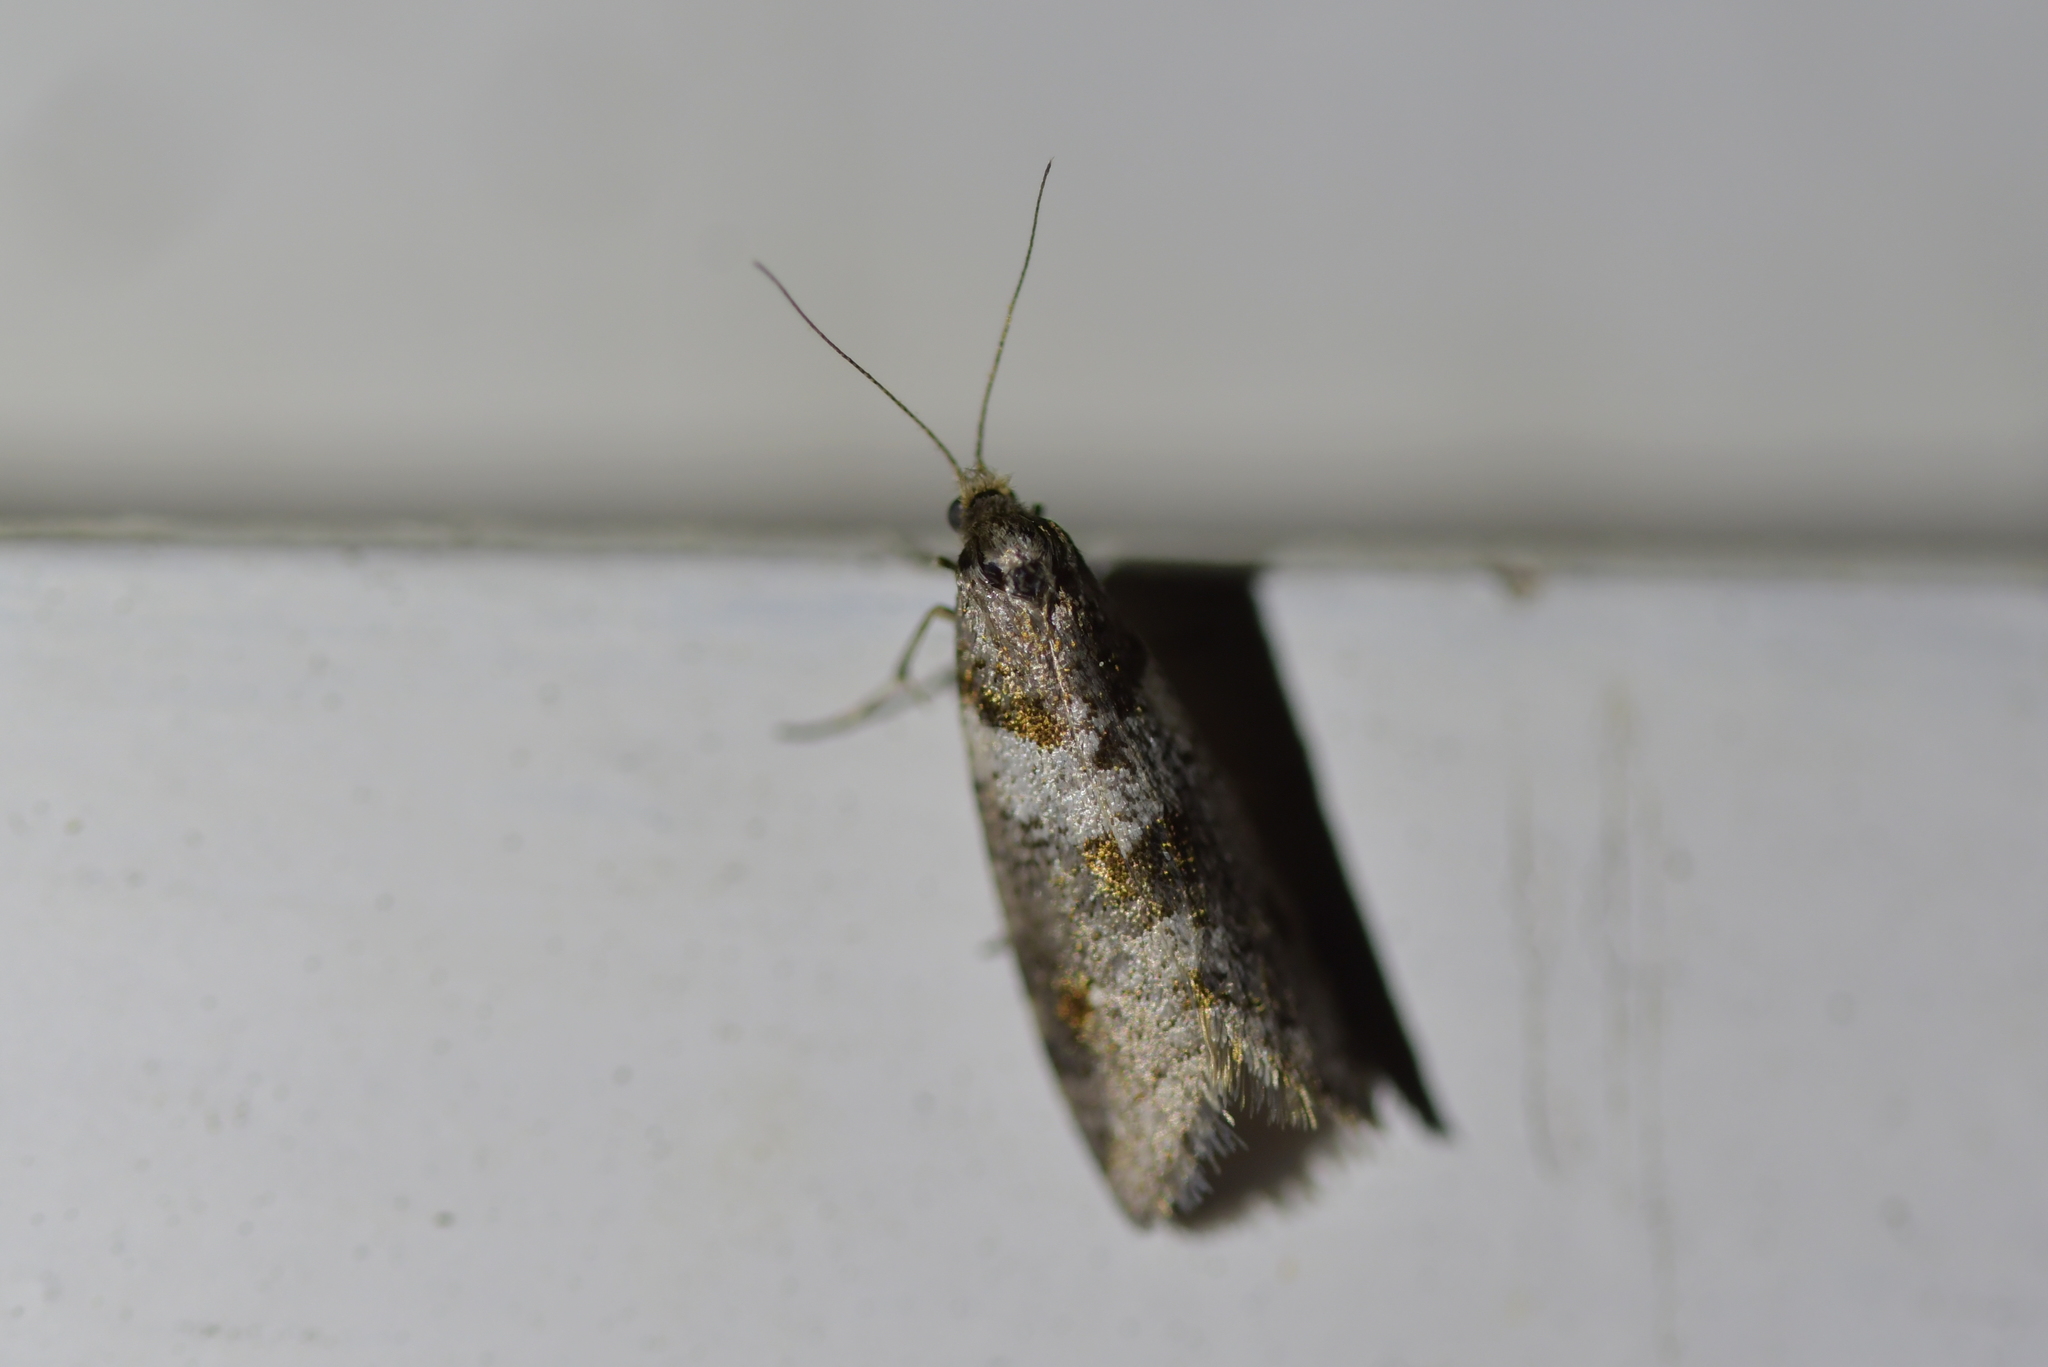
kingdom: Animalia
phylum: Arthropoda
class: Insecta
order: Lepidoptera
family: Psychidae
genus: Lepidoscia
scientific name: Lepidoscia heliochares
